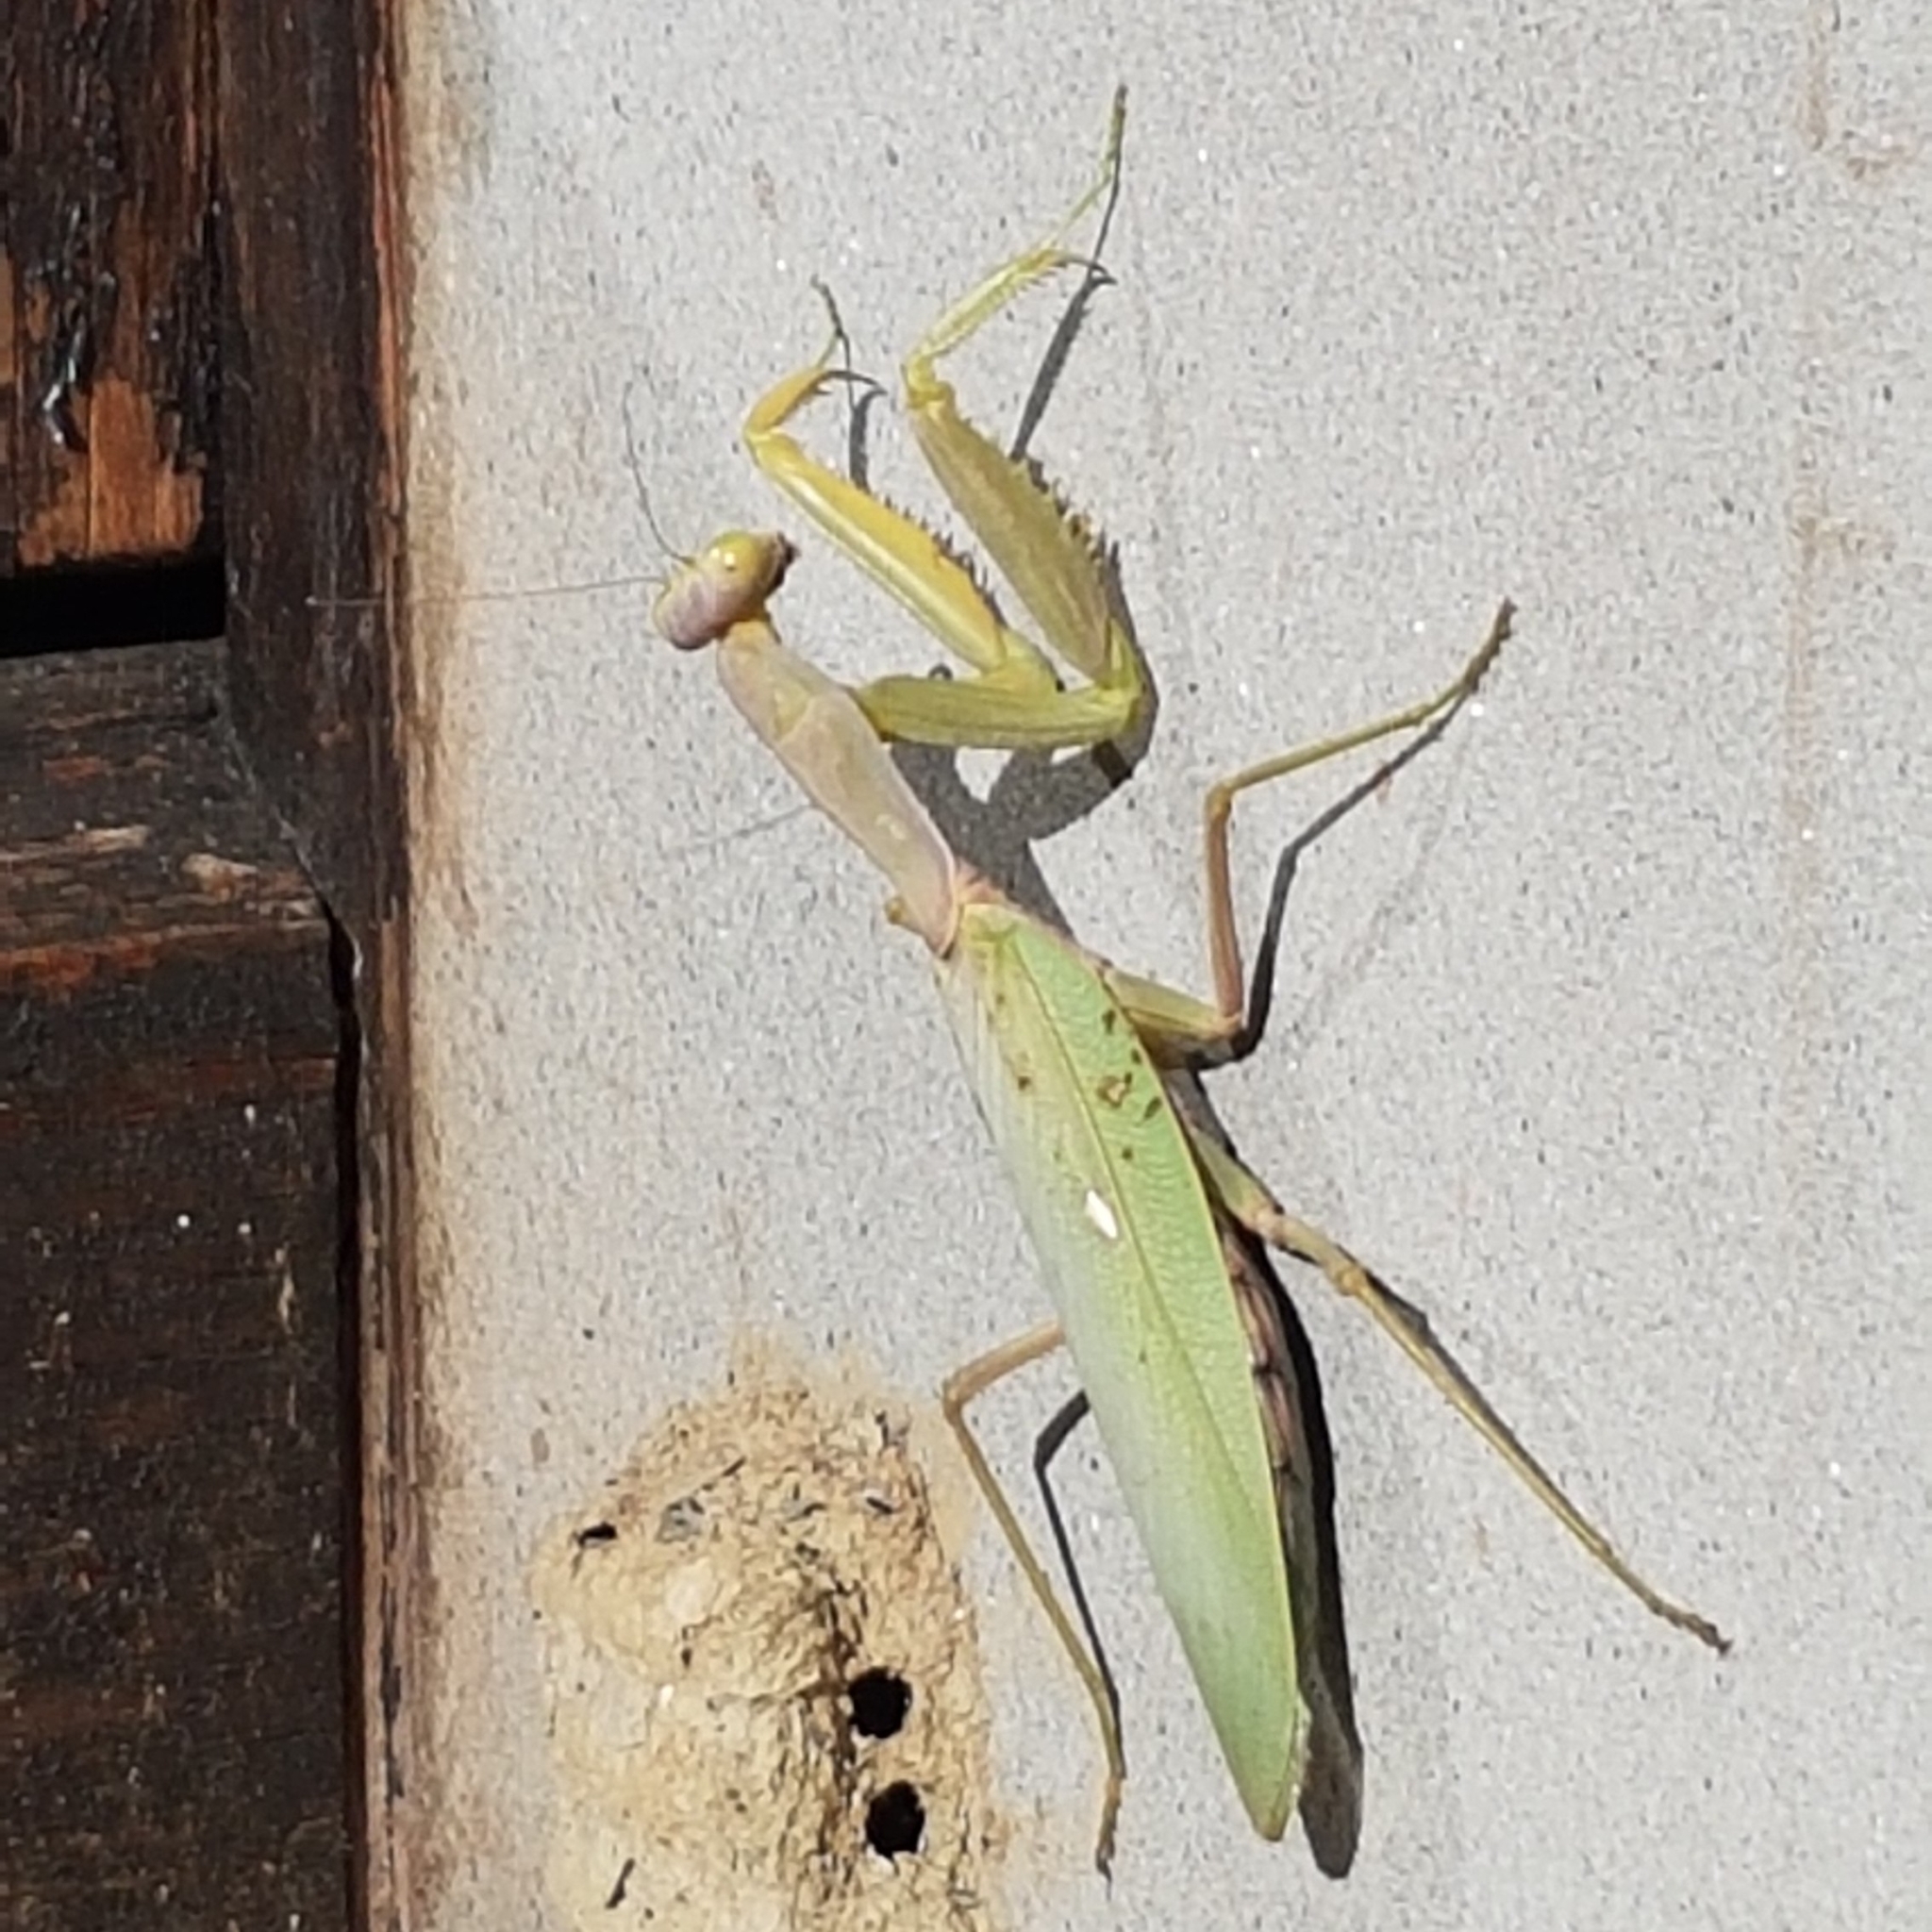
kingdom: Animalia
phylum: Arthropoda
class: Insecta
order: Mantodea
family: Mantidae
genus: Hierodula
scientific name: Hierodula transcaucasica
